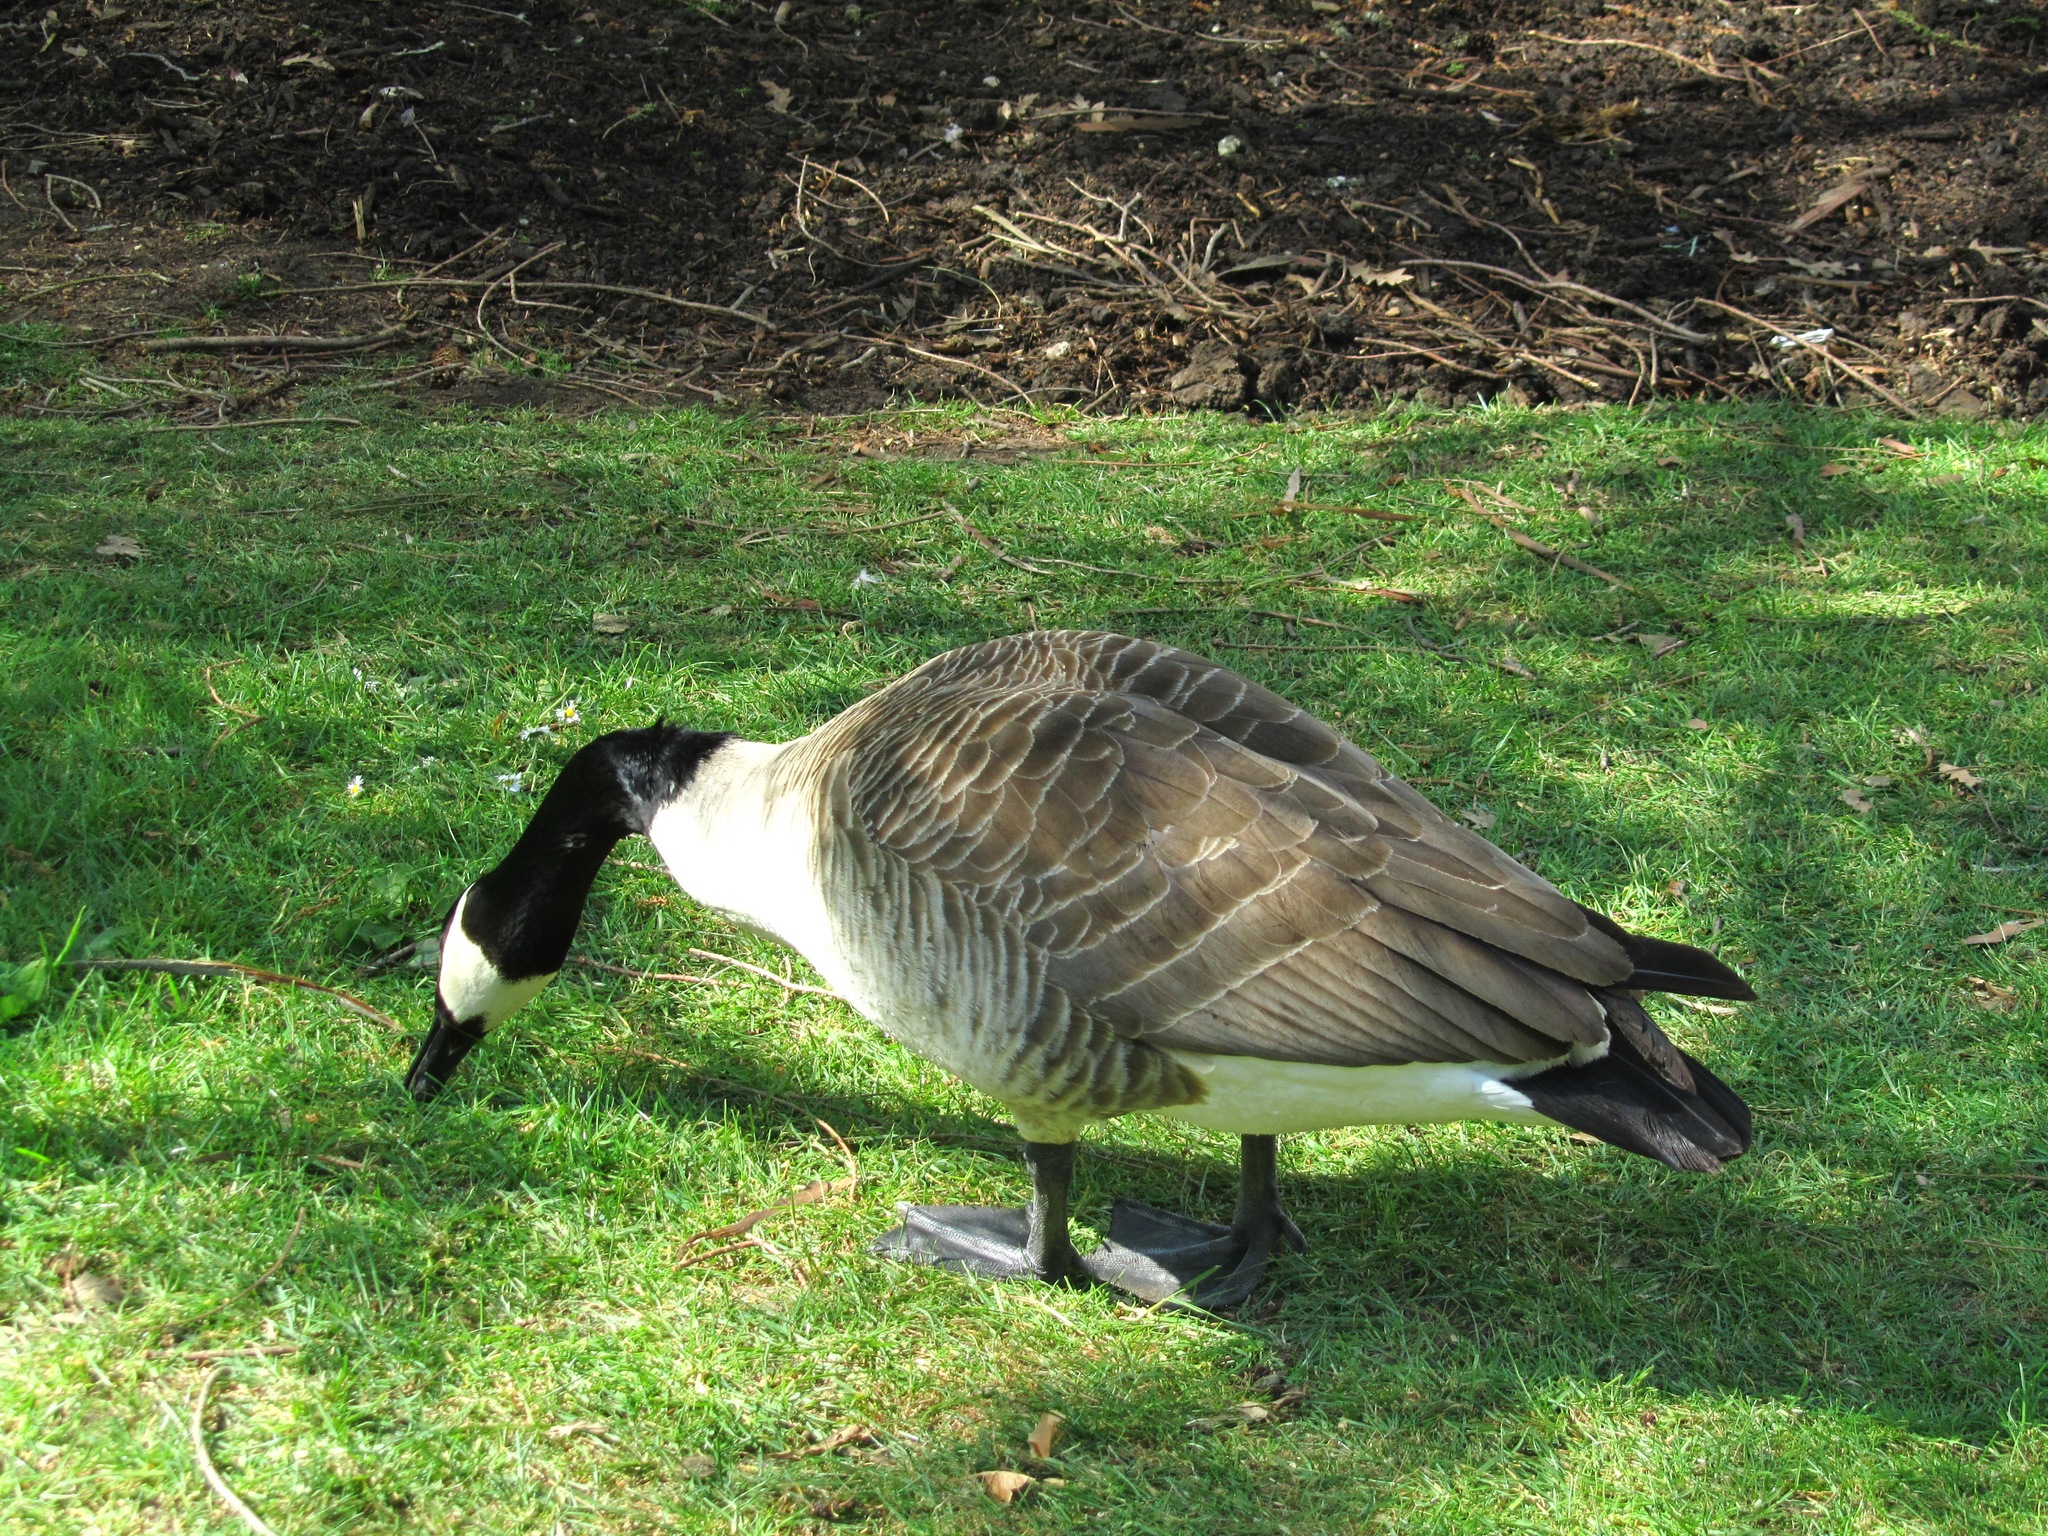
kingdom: Animalia
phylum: Chordata
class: Aves
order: Anseriformes
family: Anatidae
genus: Branta
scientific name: Branta canadensis
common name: Canada goose
